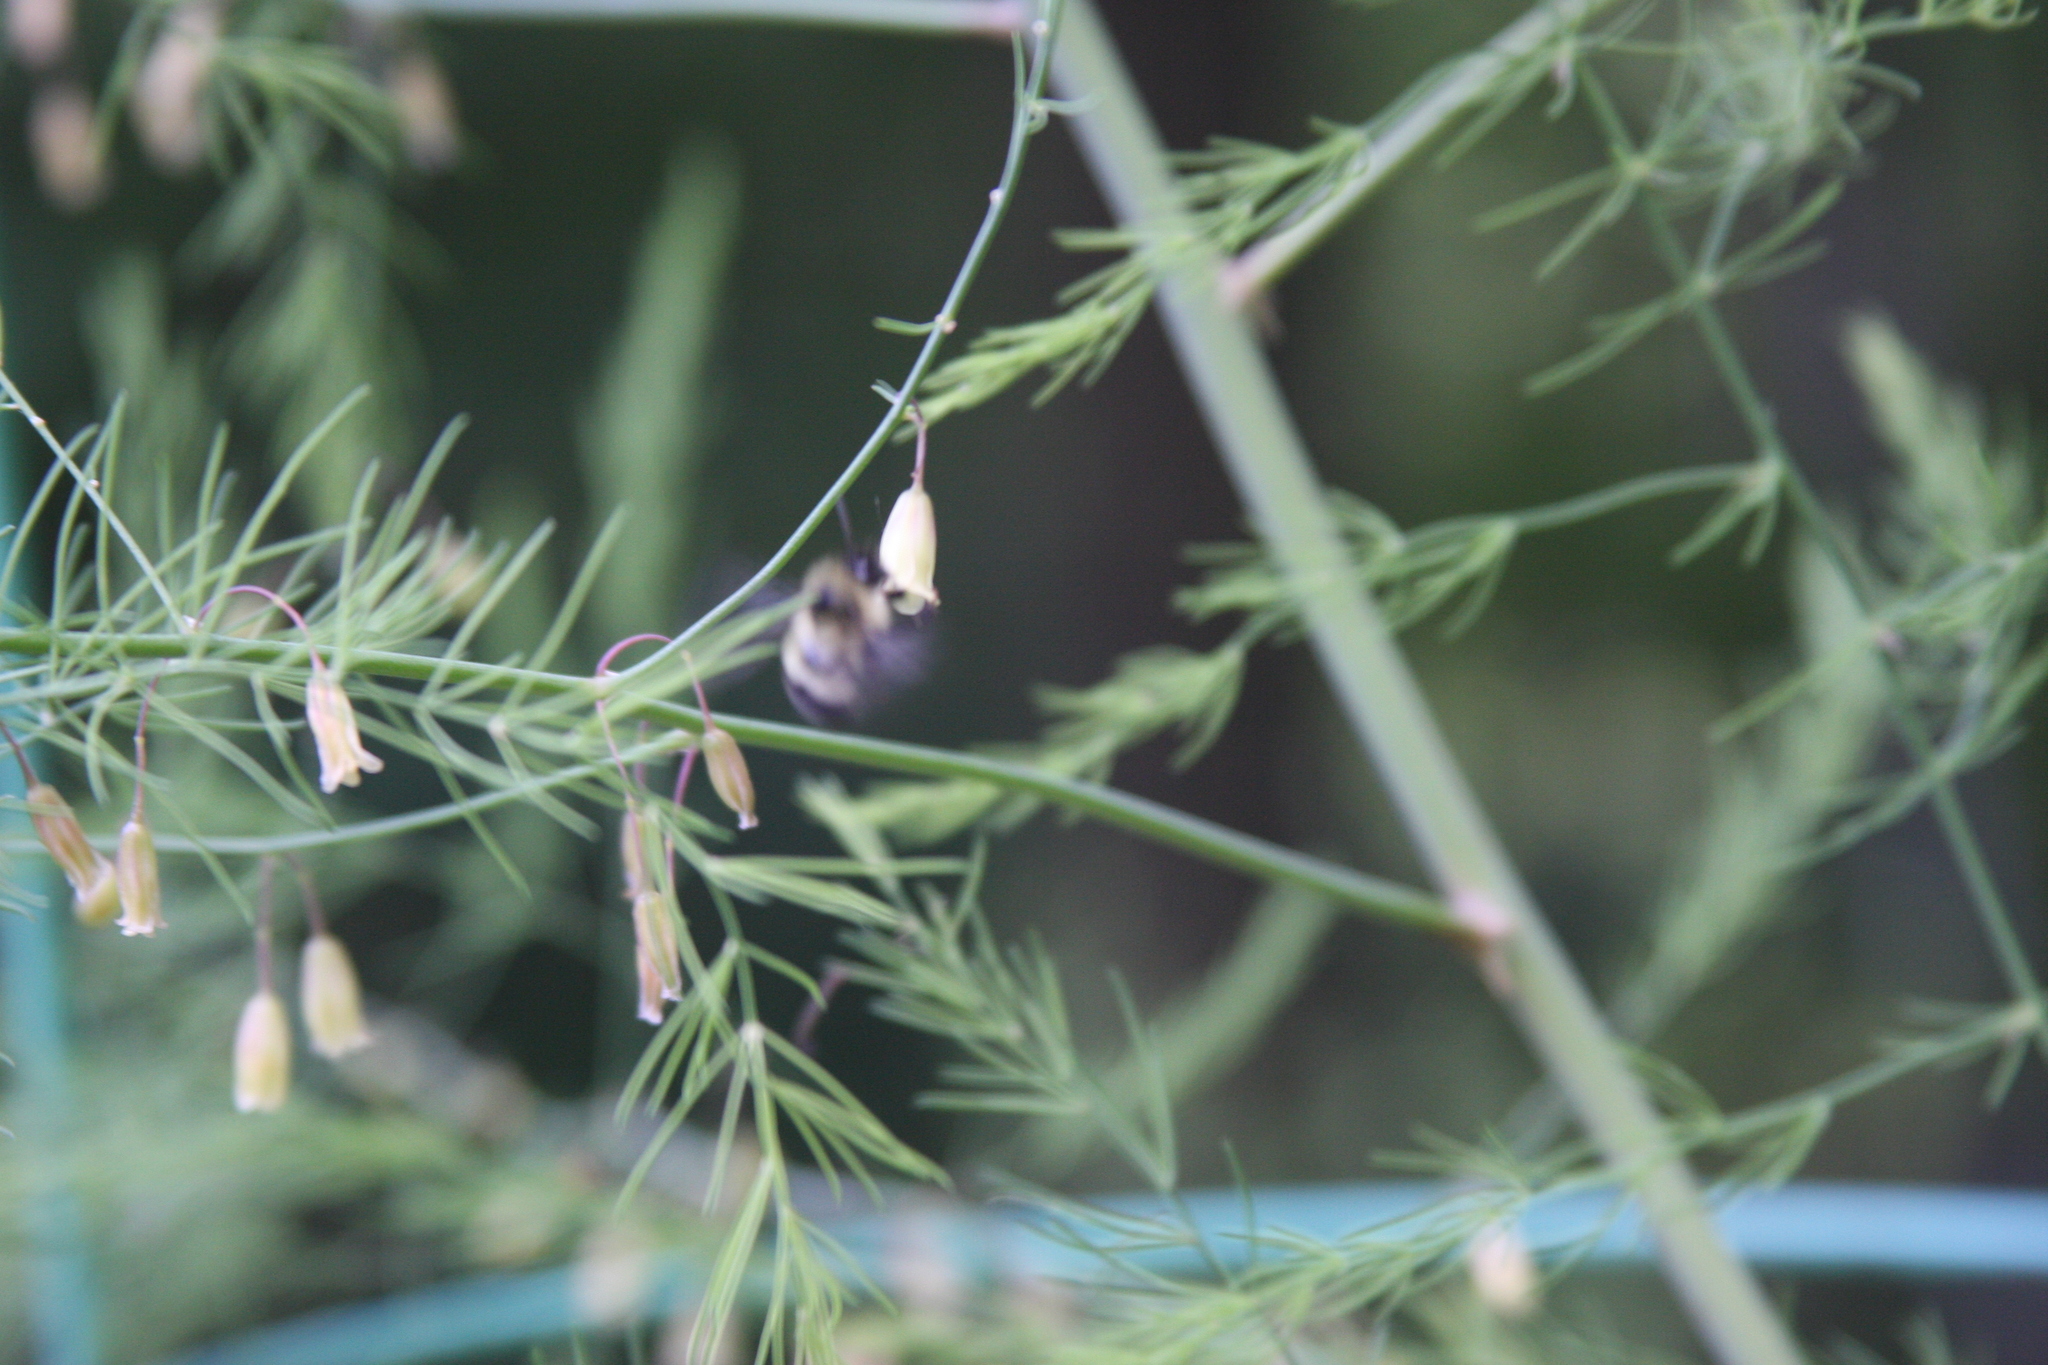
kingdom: Animalia
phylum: Arthropoda
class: Insecta
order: Hymenoptera
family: Apidae
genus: Pyrobombus
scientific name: Pyrobombus
